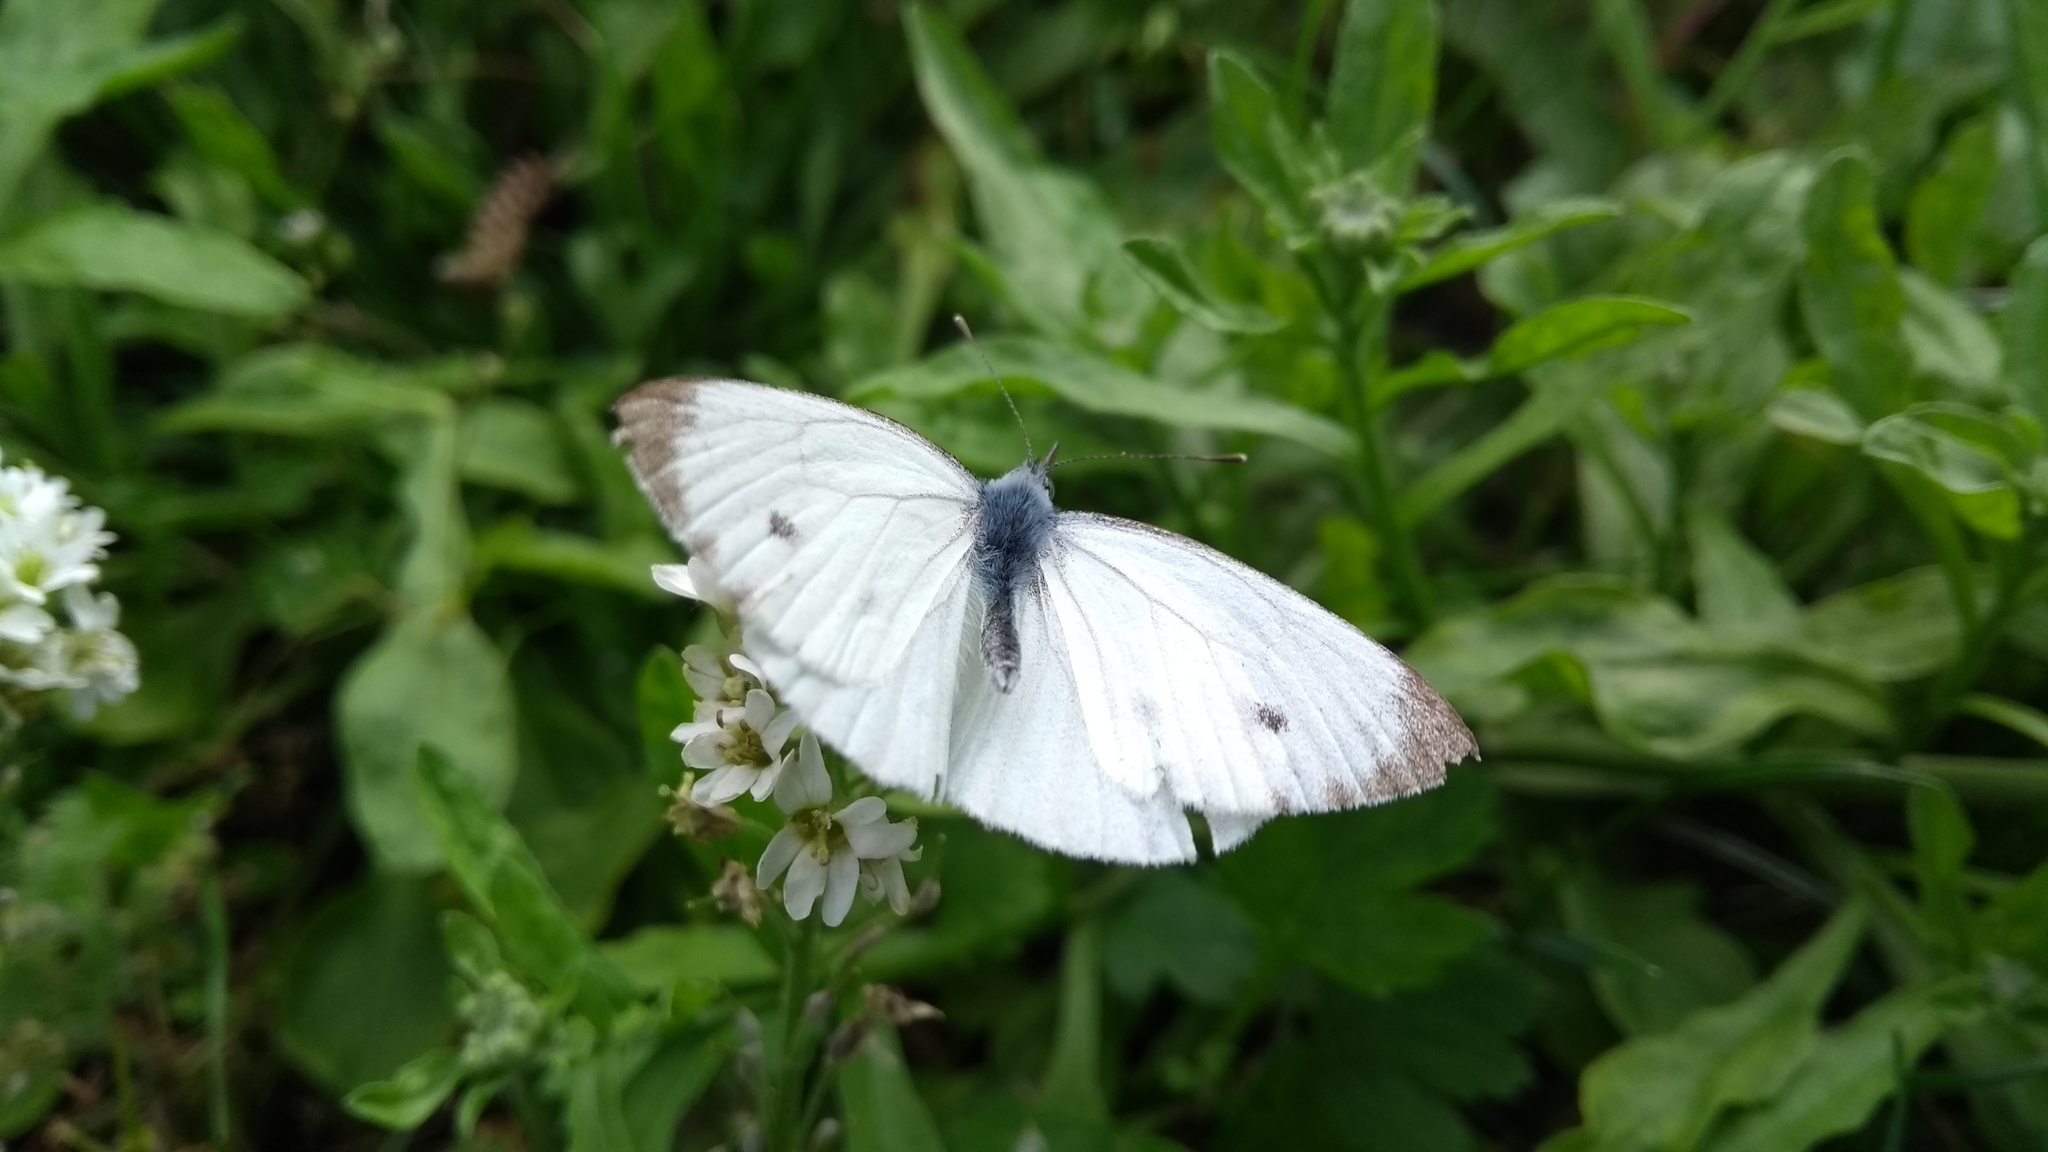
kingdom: Animalia
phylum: Arthropoda
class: Insecta
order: Lepidoptera
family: Pieridae
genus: Pieris
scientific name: Pieris napi
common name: Green-veined white
